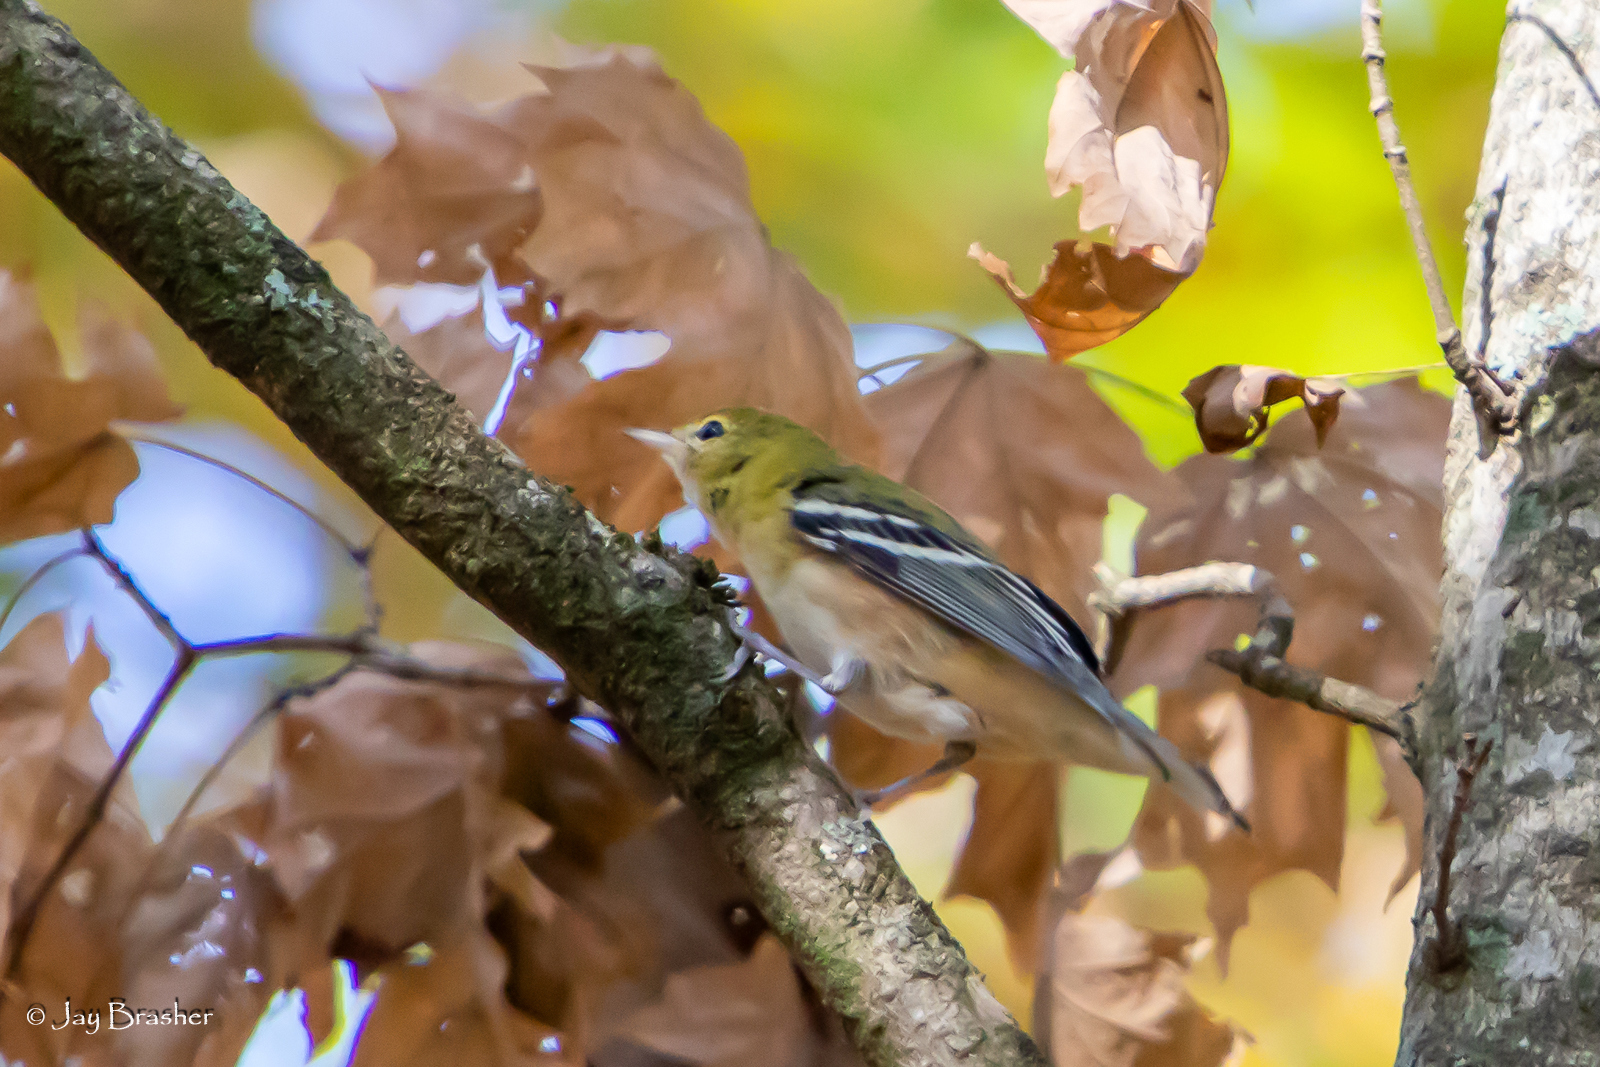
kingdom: Animalia
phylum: Chordata
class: Aves
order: Passeriformes
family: Parulidae
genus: Setophaga
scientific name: Setophaga castanea
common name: Bay-breasted warbler
